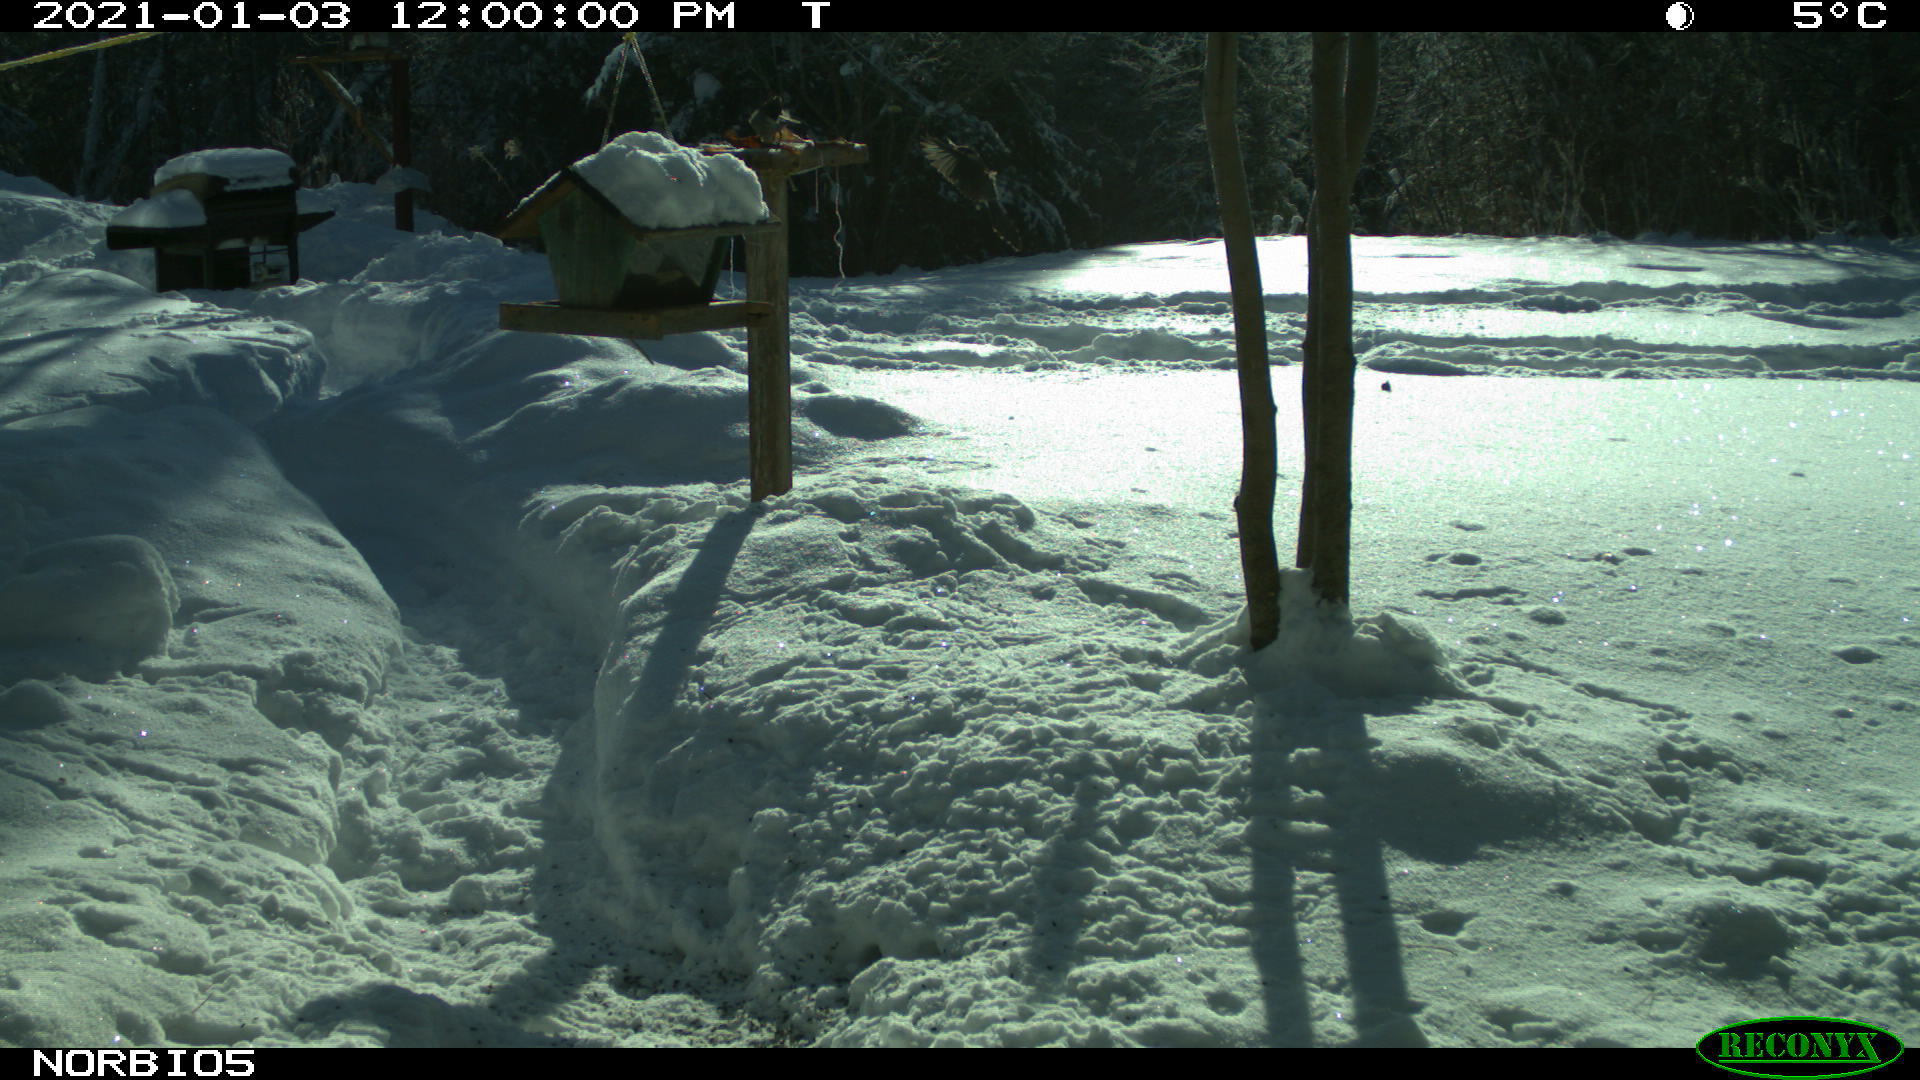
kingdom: Animalia
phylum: Chordata
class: Aves
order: Passeriformes
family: Corvidae
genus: Perisoreus
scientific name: Perisoreus canadensis
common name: Gray jay
